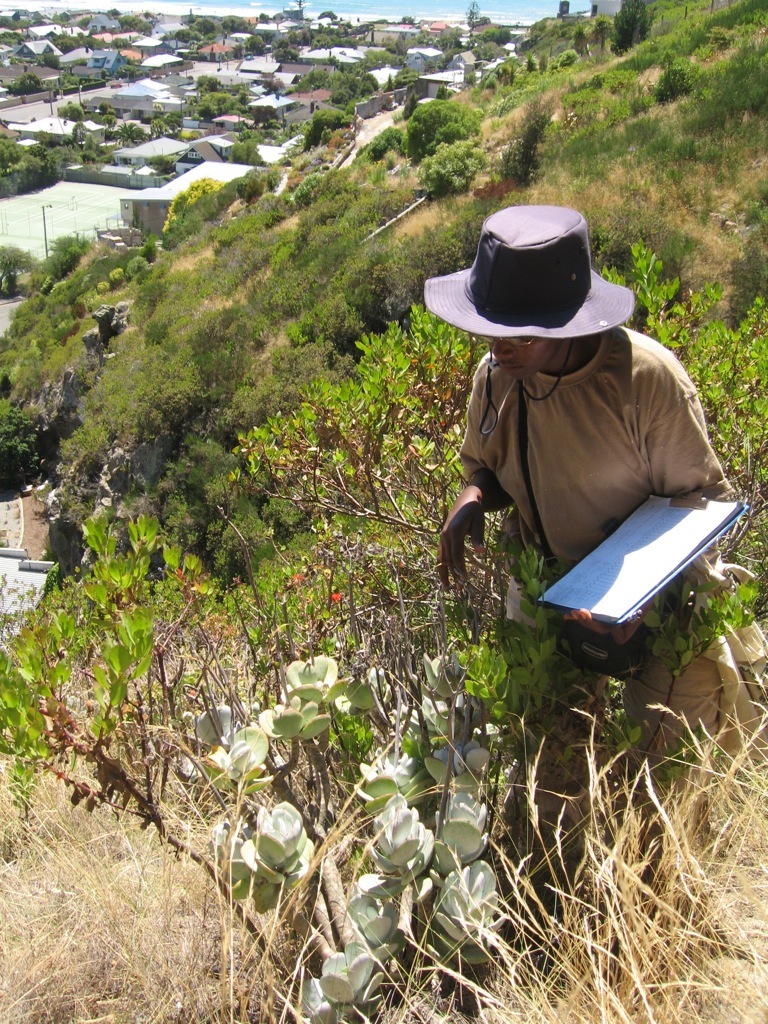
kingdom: Plantae
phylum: Tracheophyta
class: Magnoliopsida
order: Asterales
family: Asteraceae
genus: Osteospermum
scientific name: Osteospermum moniliferum
